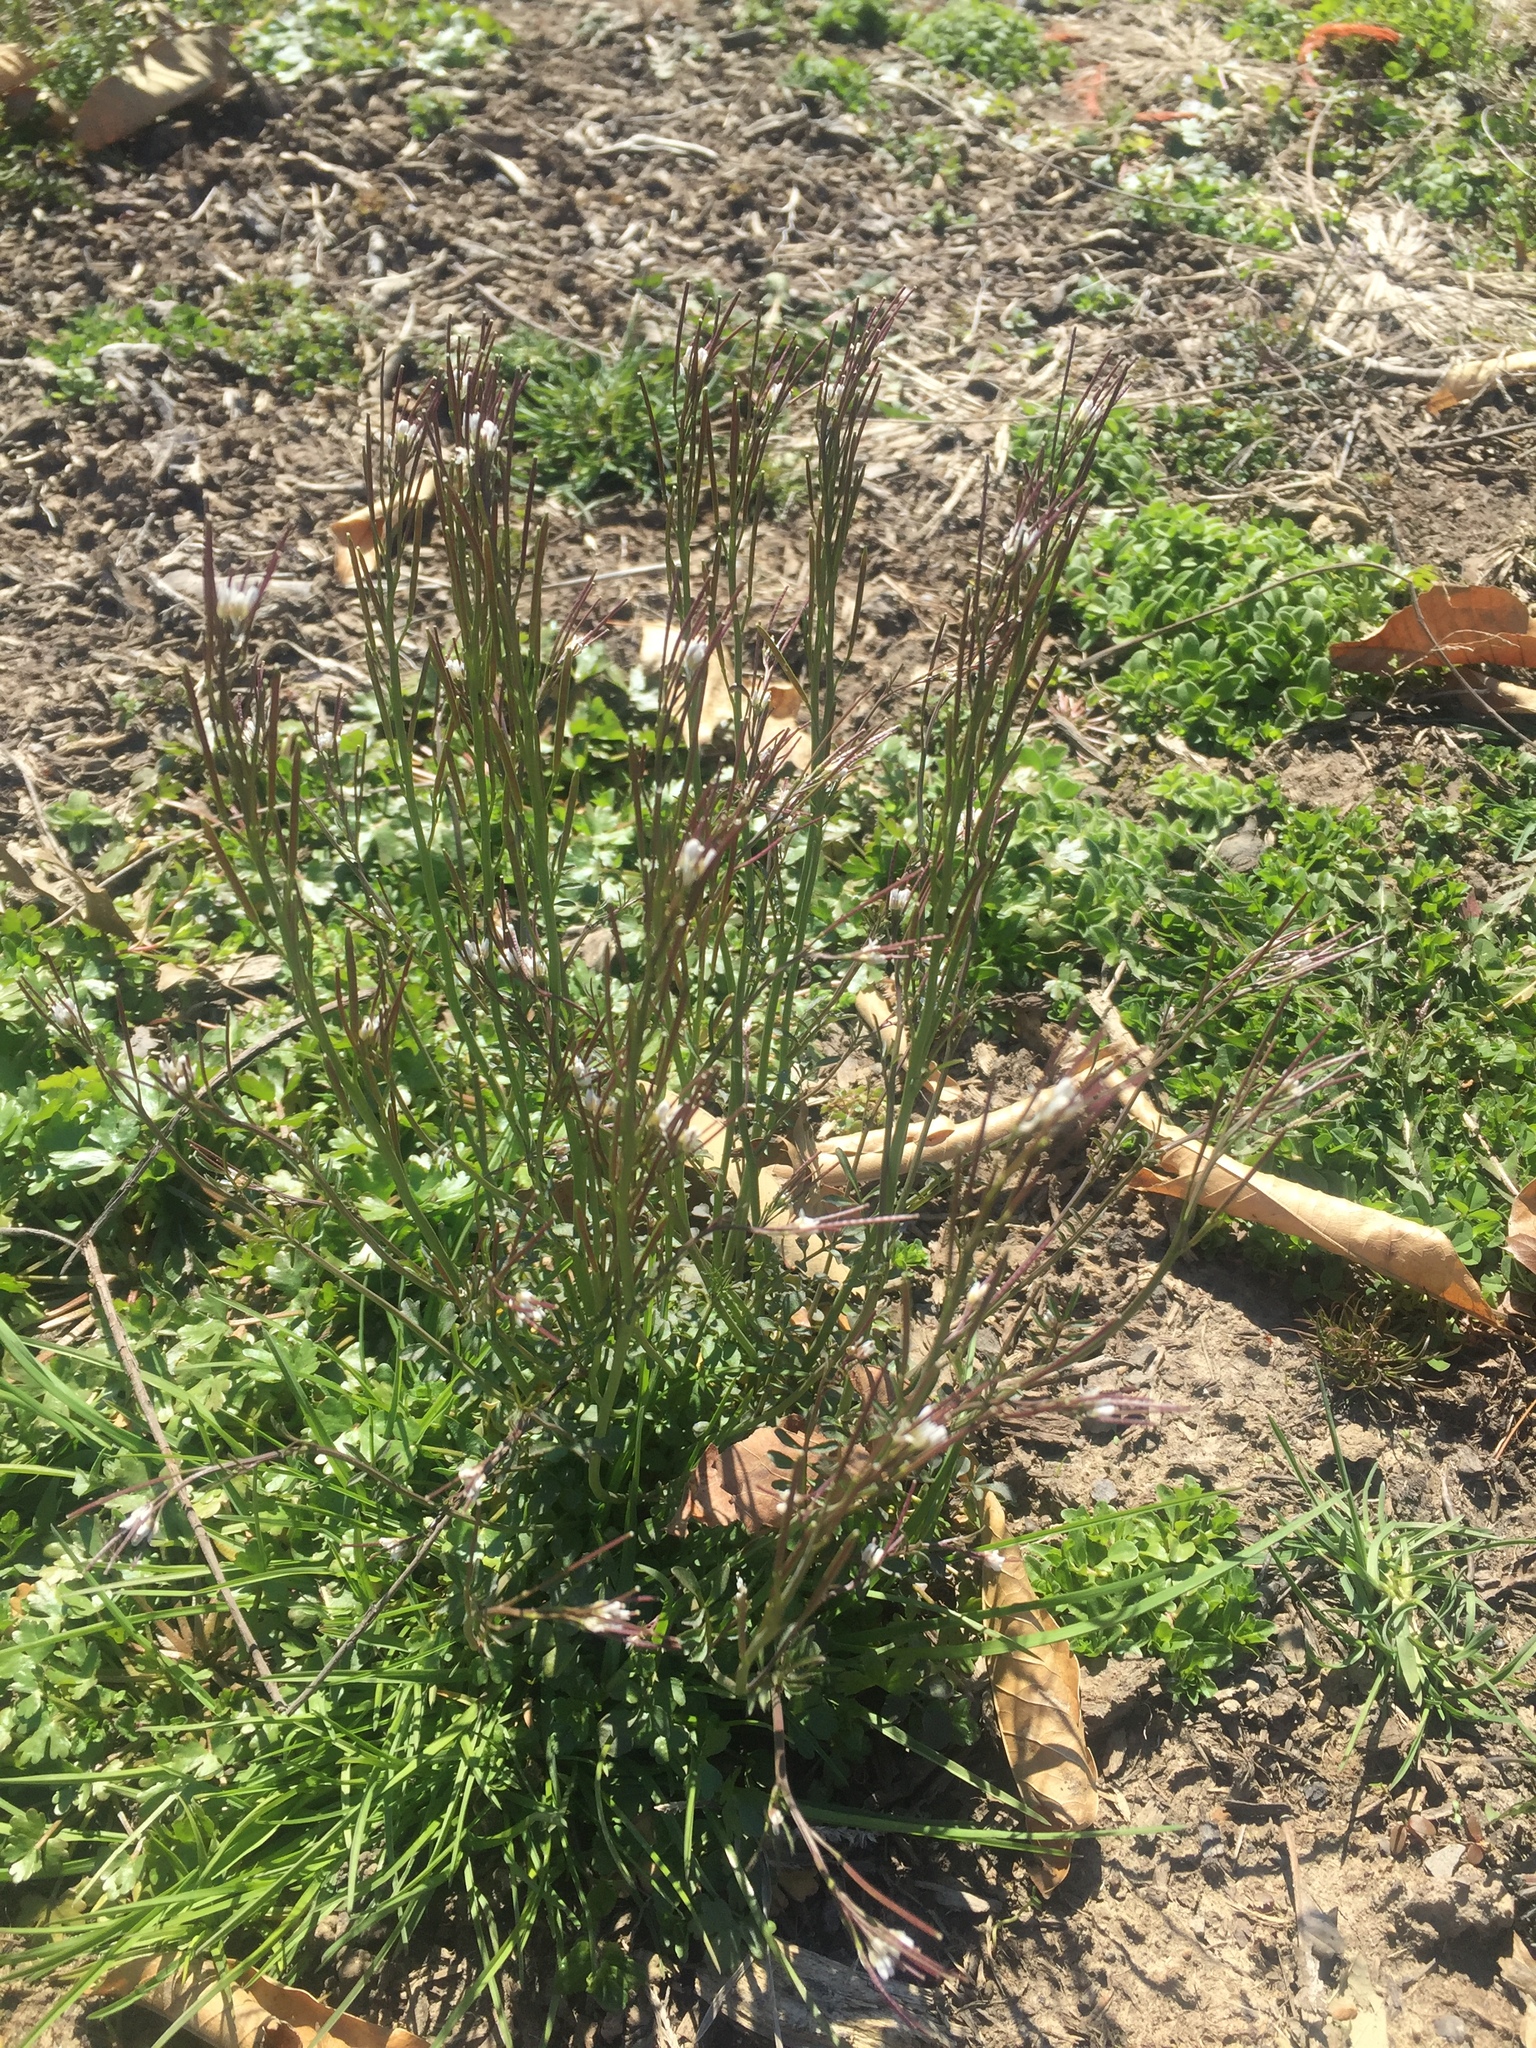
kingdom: Plantae
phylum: Tracheophyta
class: Magnoliopsida
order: Brassicales
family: Brassicaceae
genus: Cardamine
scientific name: Cardamine hirsuta
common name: Hairy bittercress
